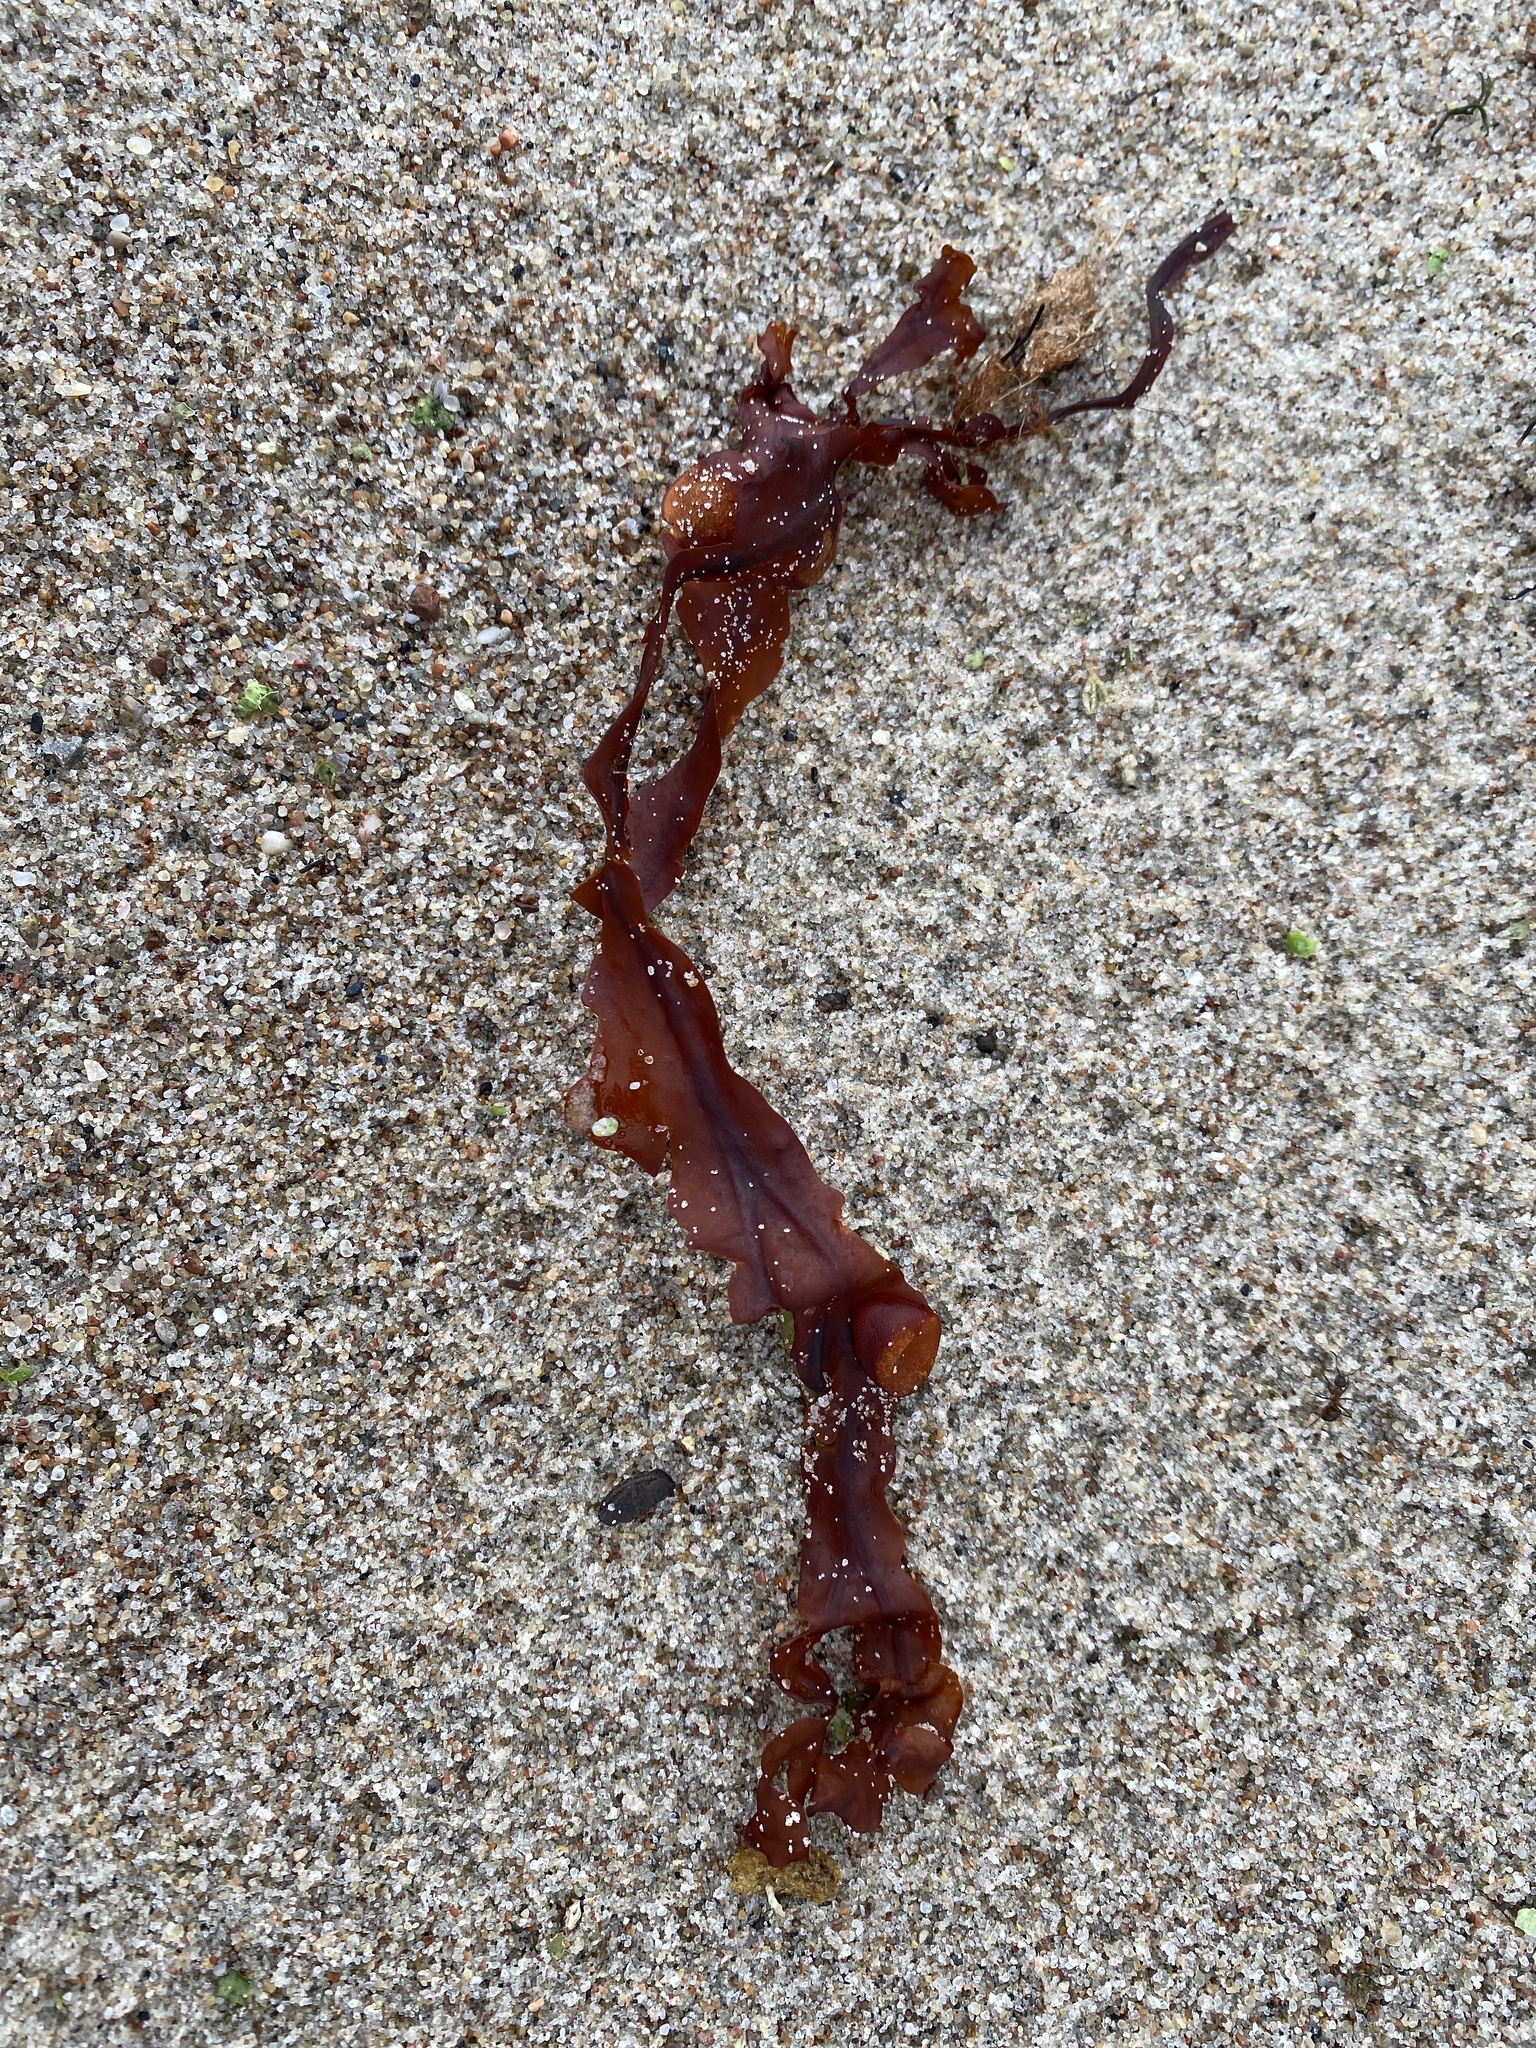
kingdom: Chromista
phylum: Ochrophyta
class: Phaeophyceae
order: Fucales
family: Fucaceae
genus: Fucus
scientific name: Fucus vesiculosus
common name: Bladder wrack
